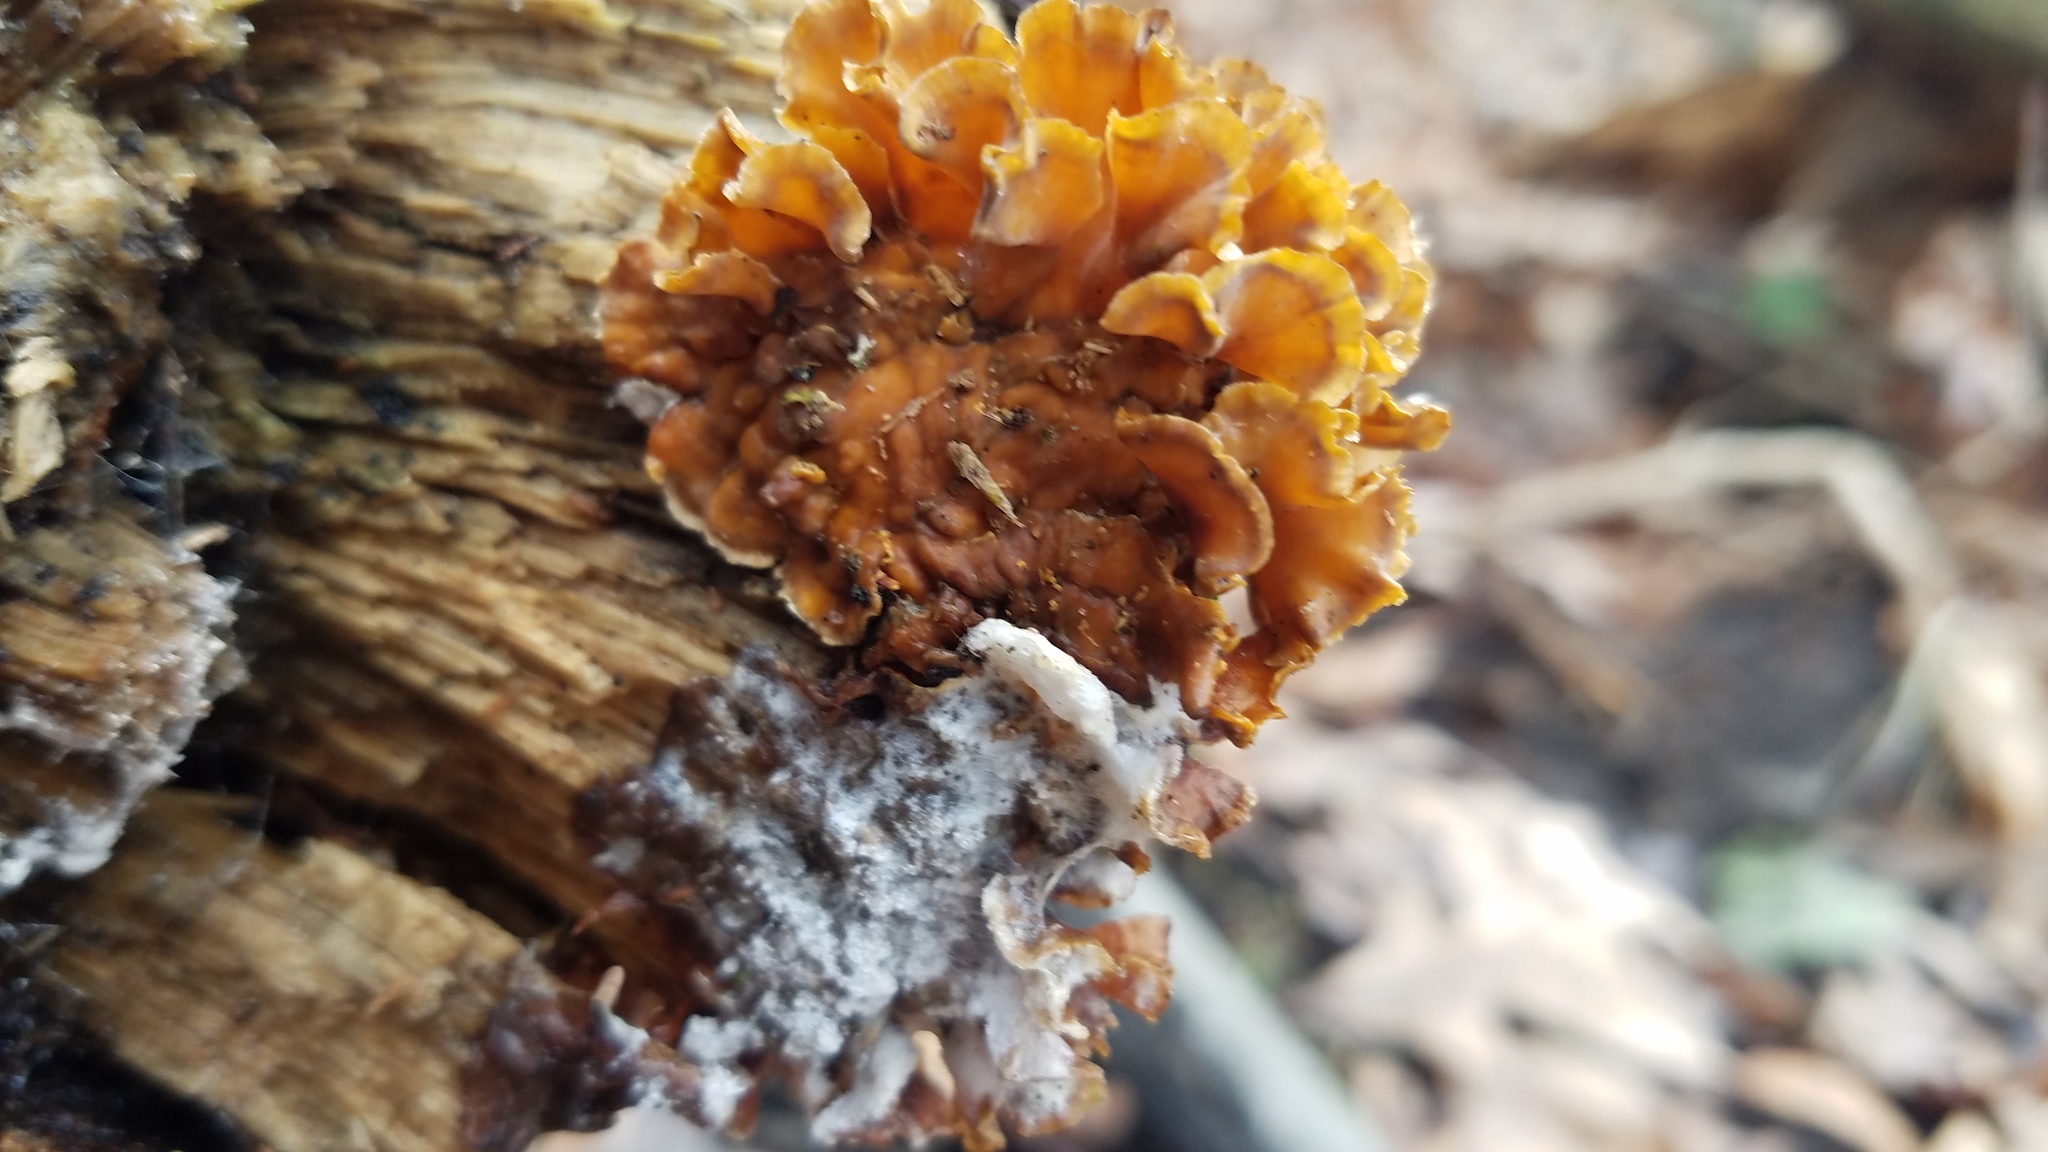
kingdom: Fungi
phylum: Basidiomycota
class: Agaricomycetes
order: Russulales
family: Stereaceae
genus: Stereum
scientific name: Stereum complicatum
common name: Crowded parchment
